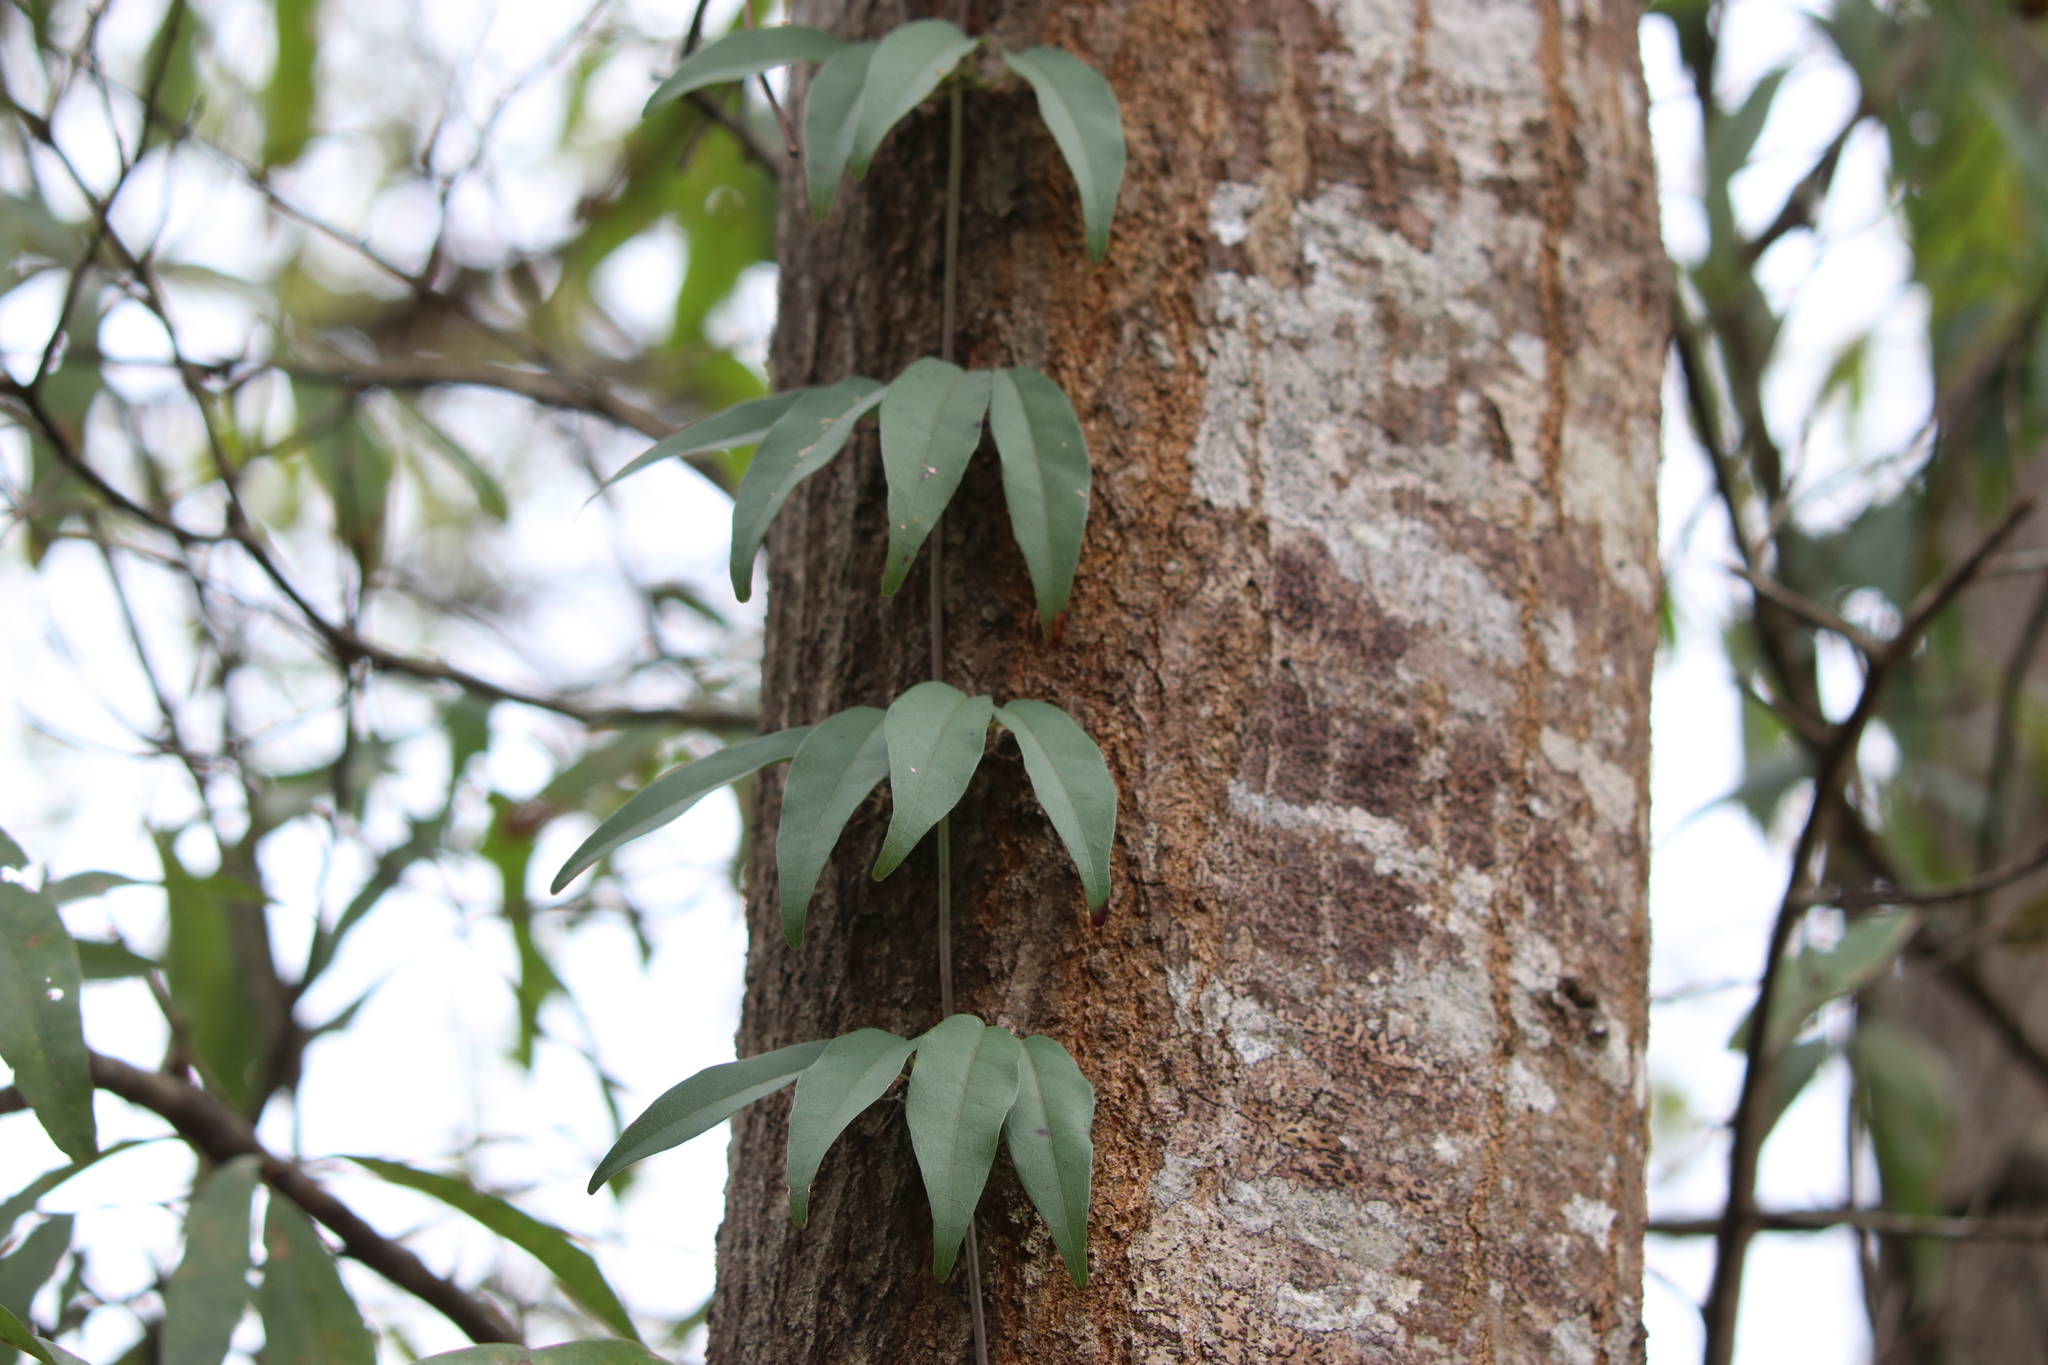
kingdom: Plantae
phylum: Tracheophyta
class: Magnoliopsida
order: Lamiales
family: Bignoniaceae
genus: Bignonia
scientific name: Bignonia capreolata
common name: Crossvine
